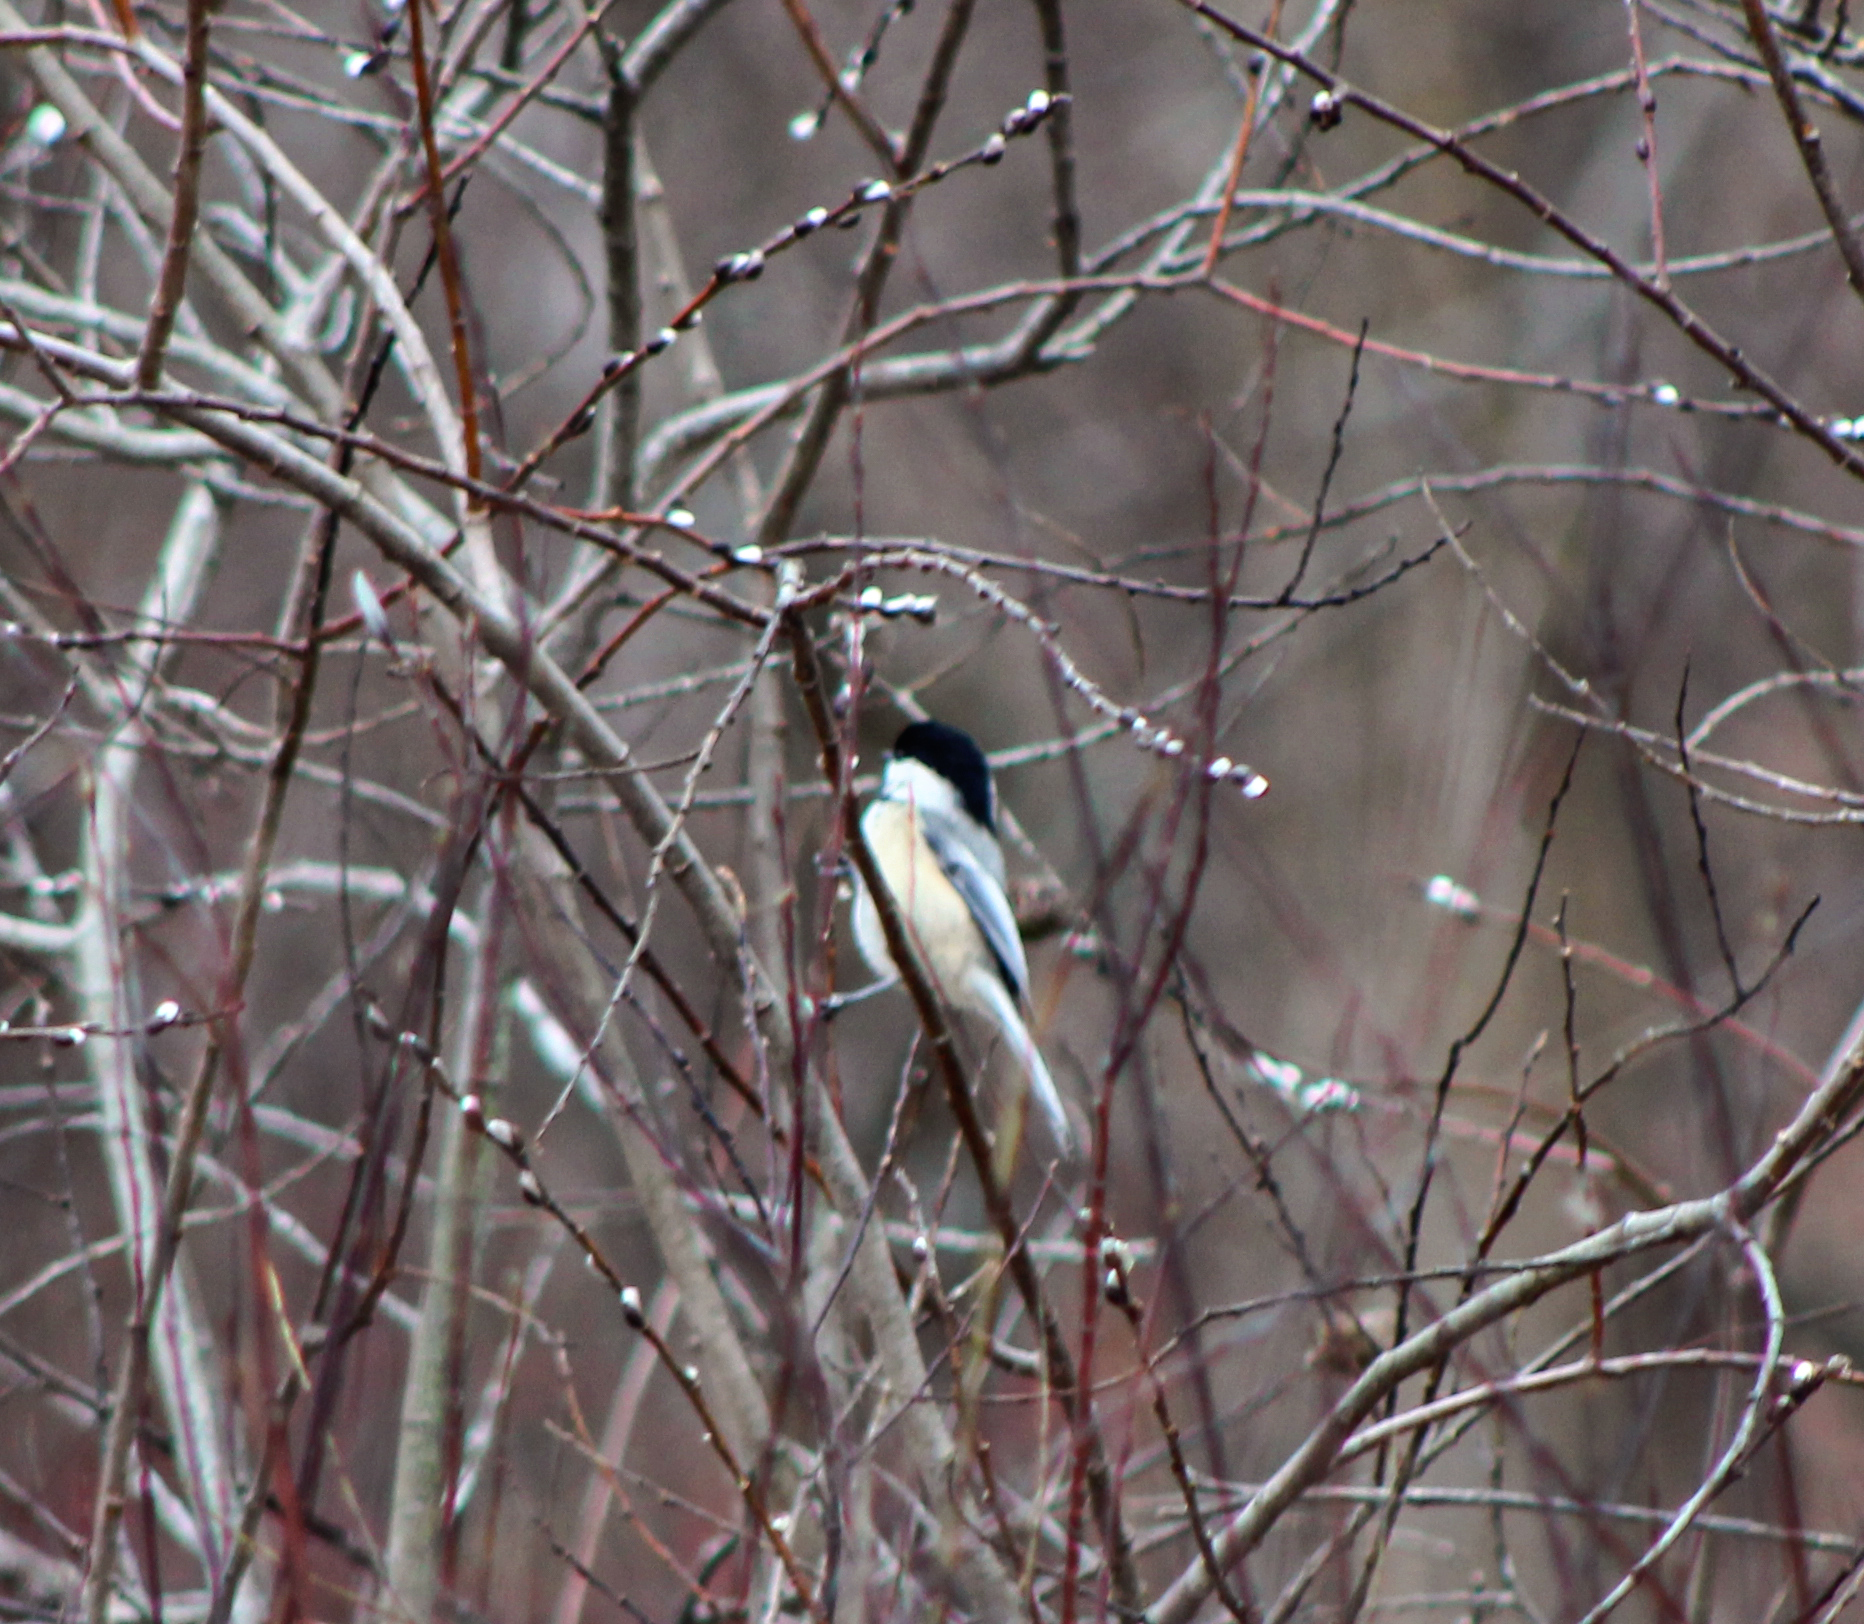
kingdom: Animalia
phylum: Chordata
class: Aves
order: Passeriformes
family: Paridae
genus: Poecile
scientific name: Poecile atricapillus
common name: Black-capped chickadee
